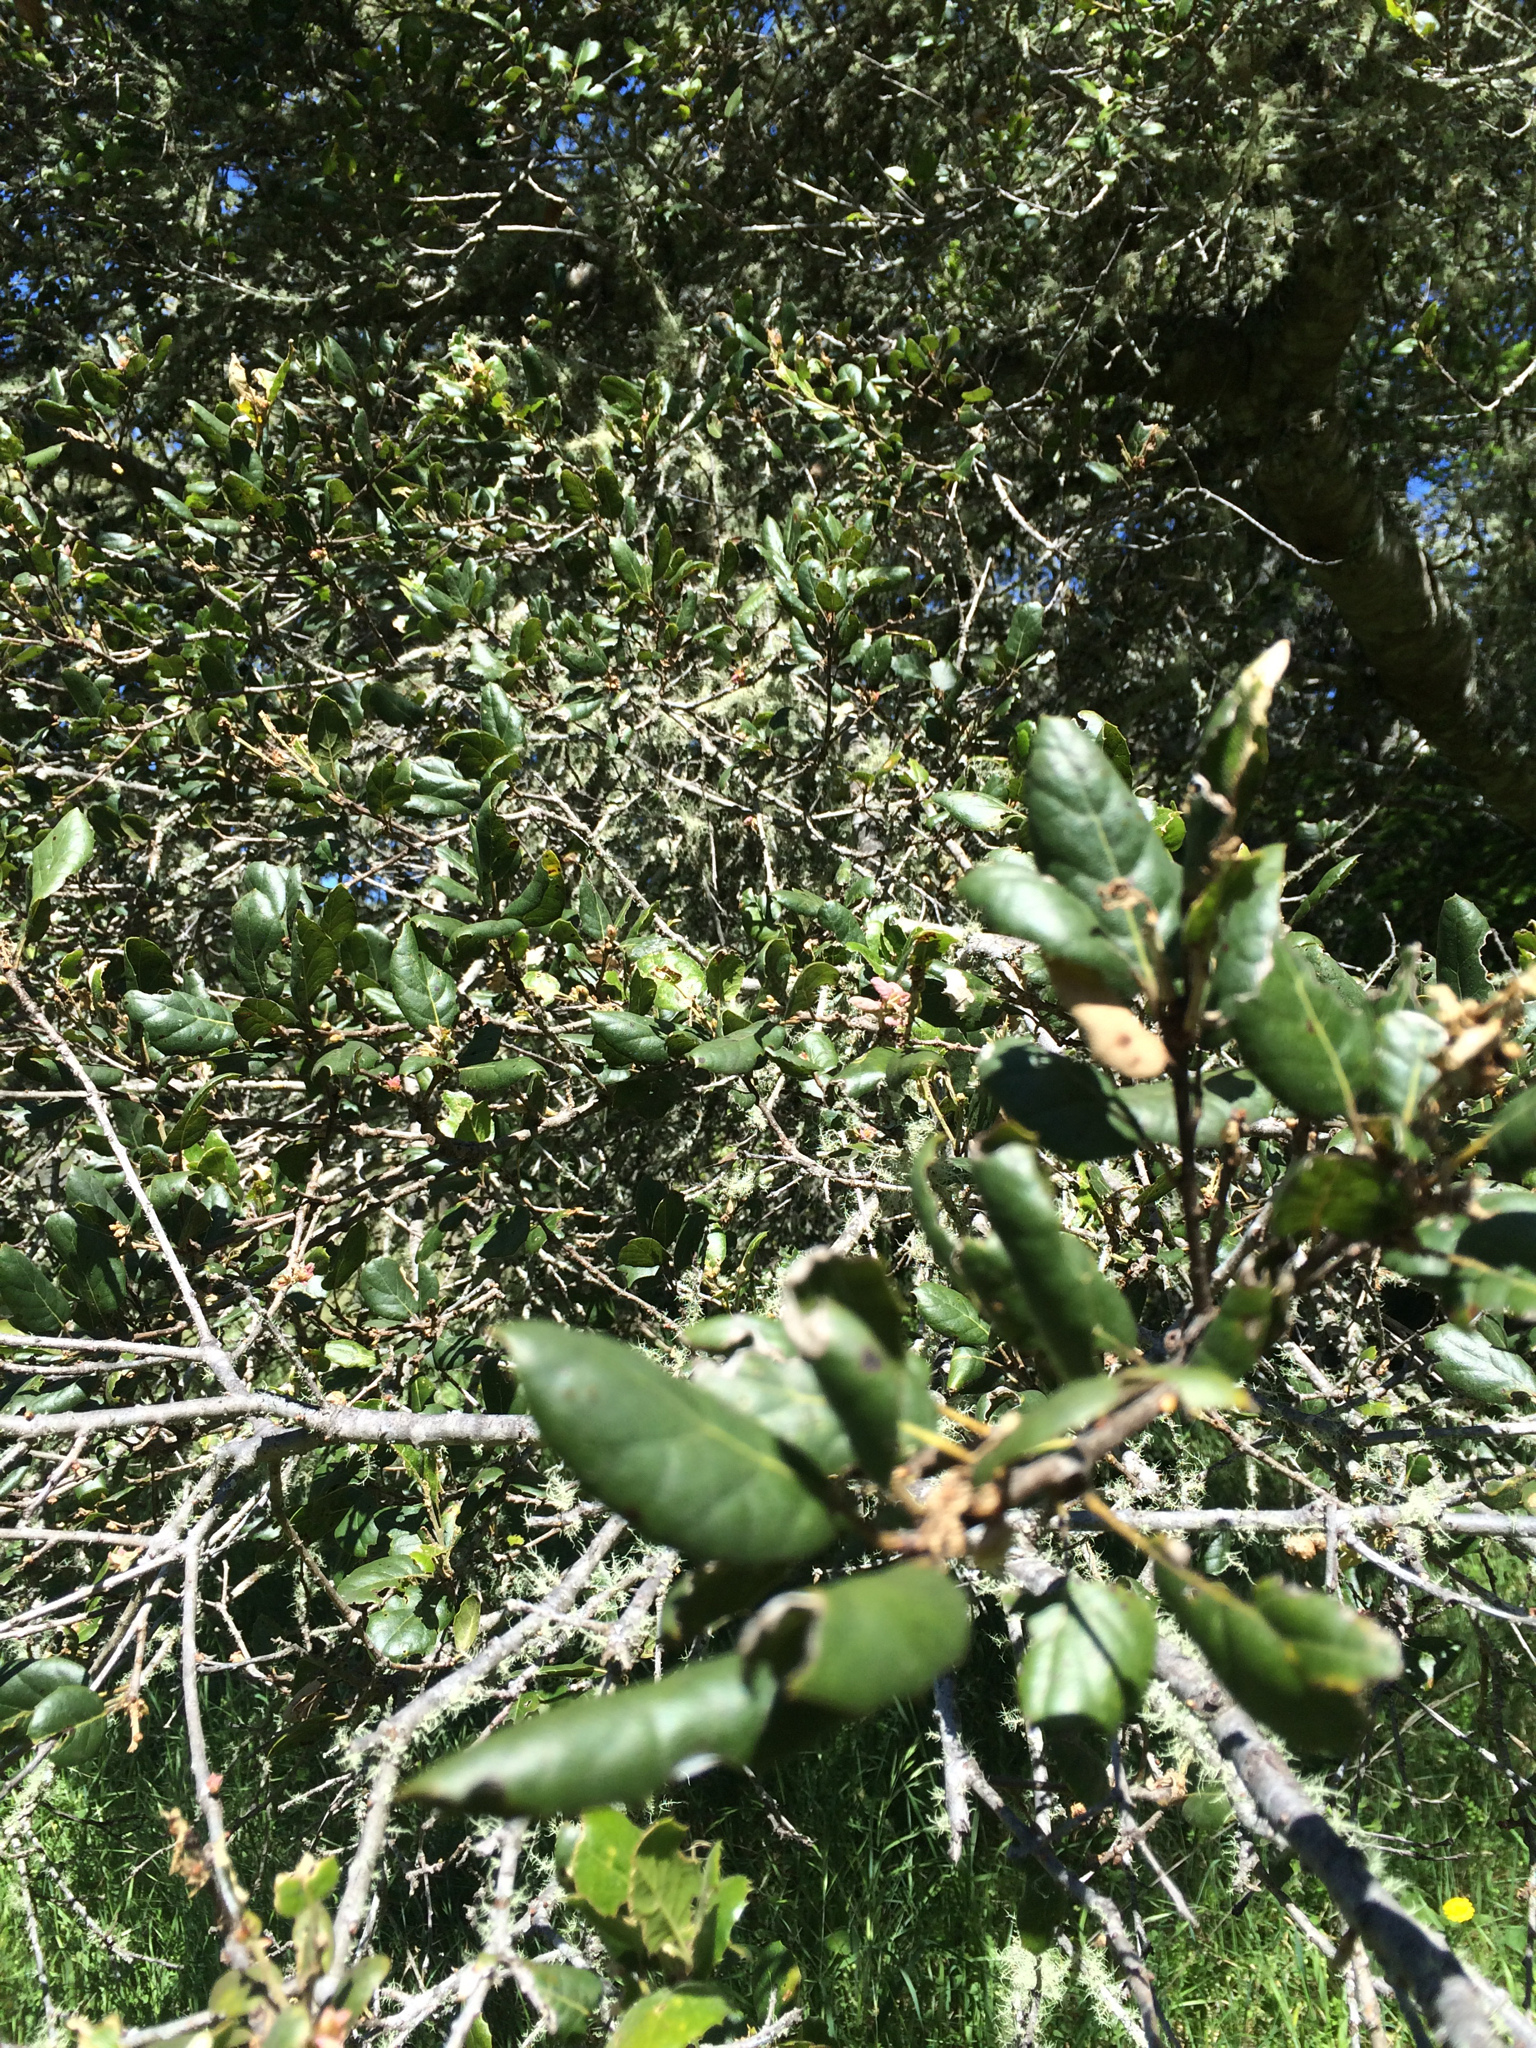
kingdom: Plantae
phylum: Tracheophyta
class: Magnoliopsida
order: Fagales
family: Fagaceae
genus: Quercus
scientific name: Quercus agrifolia
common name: California live oak
